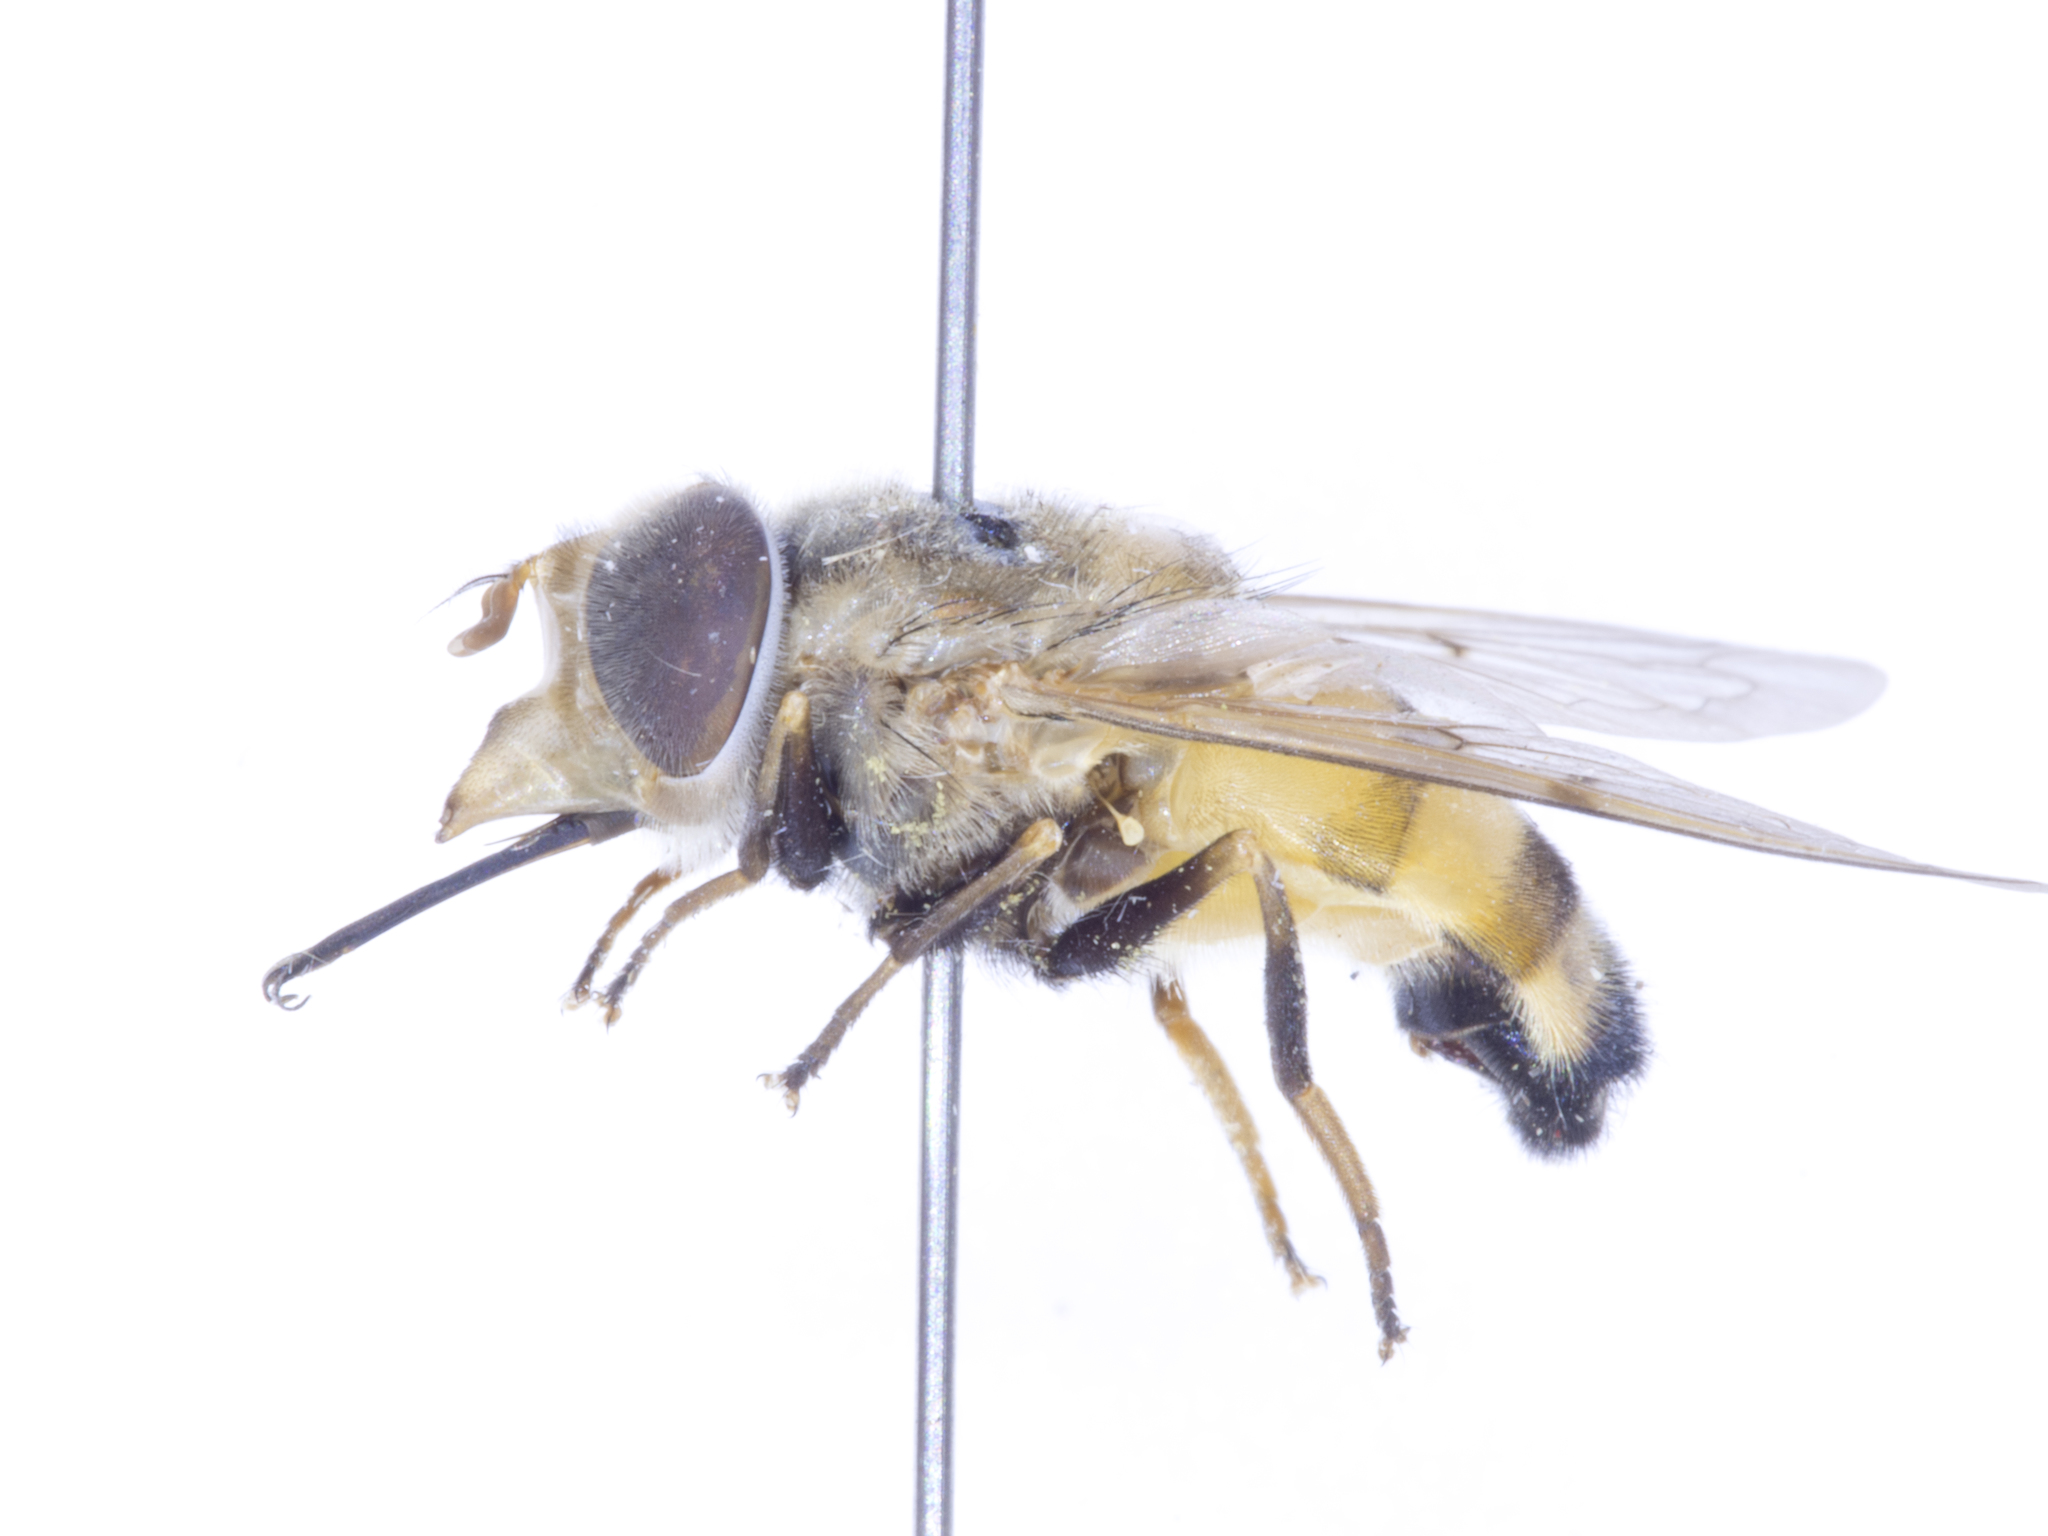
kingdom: Animalia
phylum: Arthropoda
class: Insecta
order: Diptera
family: Syrphidae
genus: Copestylum
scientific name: Copestylum haagii
